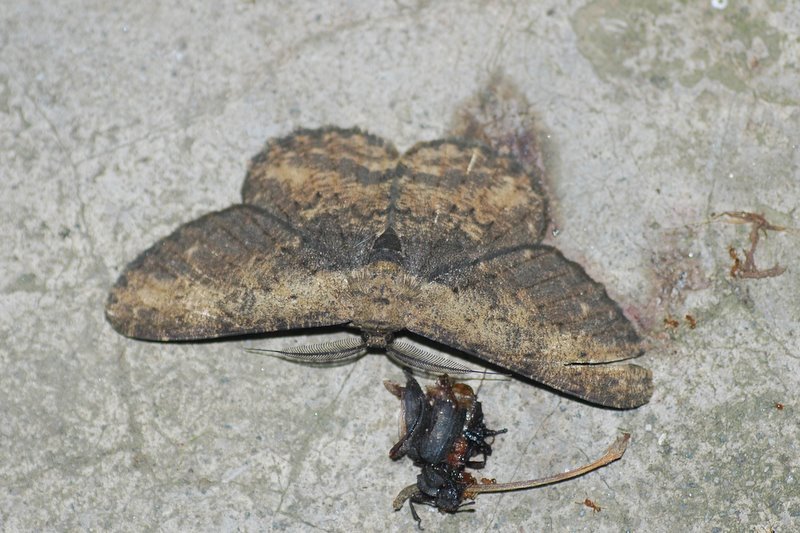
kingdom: Animalia
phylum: Arthropoda
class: Insecta
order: Lepidoptera
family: Geometridae
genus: Hypomecis
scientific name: Hypomecis separata
